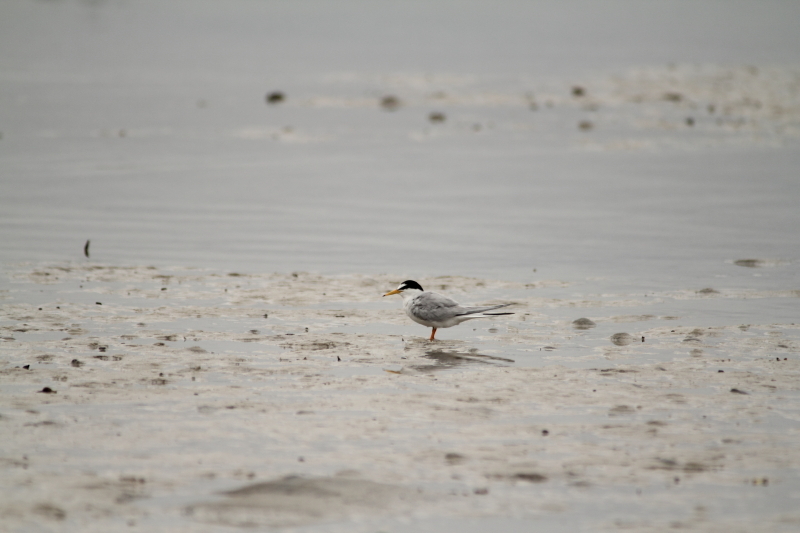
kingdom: Animalia
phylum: Chordata
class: Aves
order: Charadriiformes
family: Laridae
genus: Sternula
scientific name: Sternula albifrons
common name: Little tern
